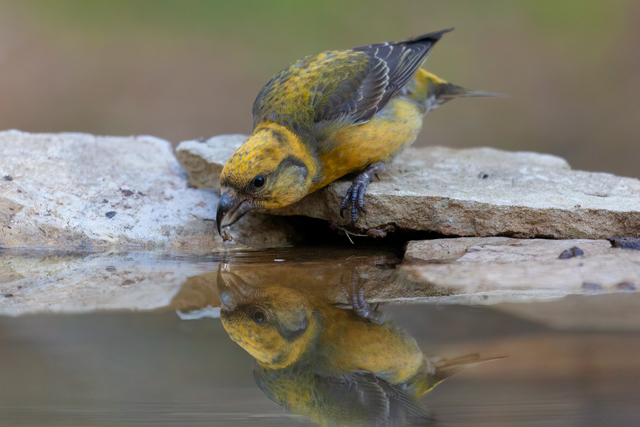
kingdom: Animalia
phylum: Chordata
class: Aves
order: Passeriformes
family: Fringillidae
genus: Loxia
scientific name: Loxia curvirostra
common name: Red crossbill
